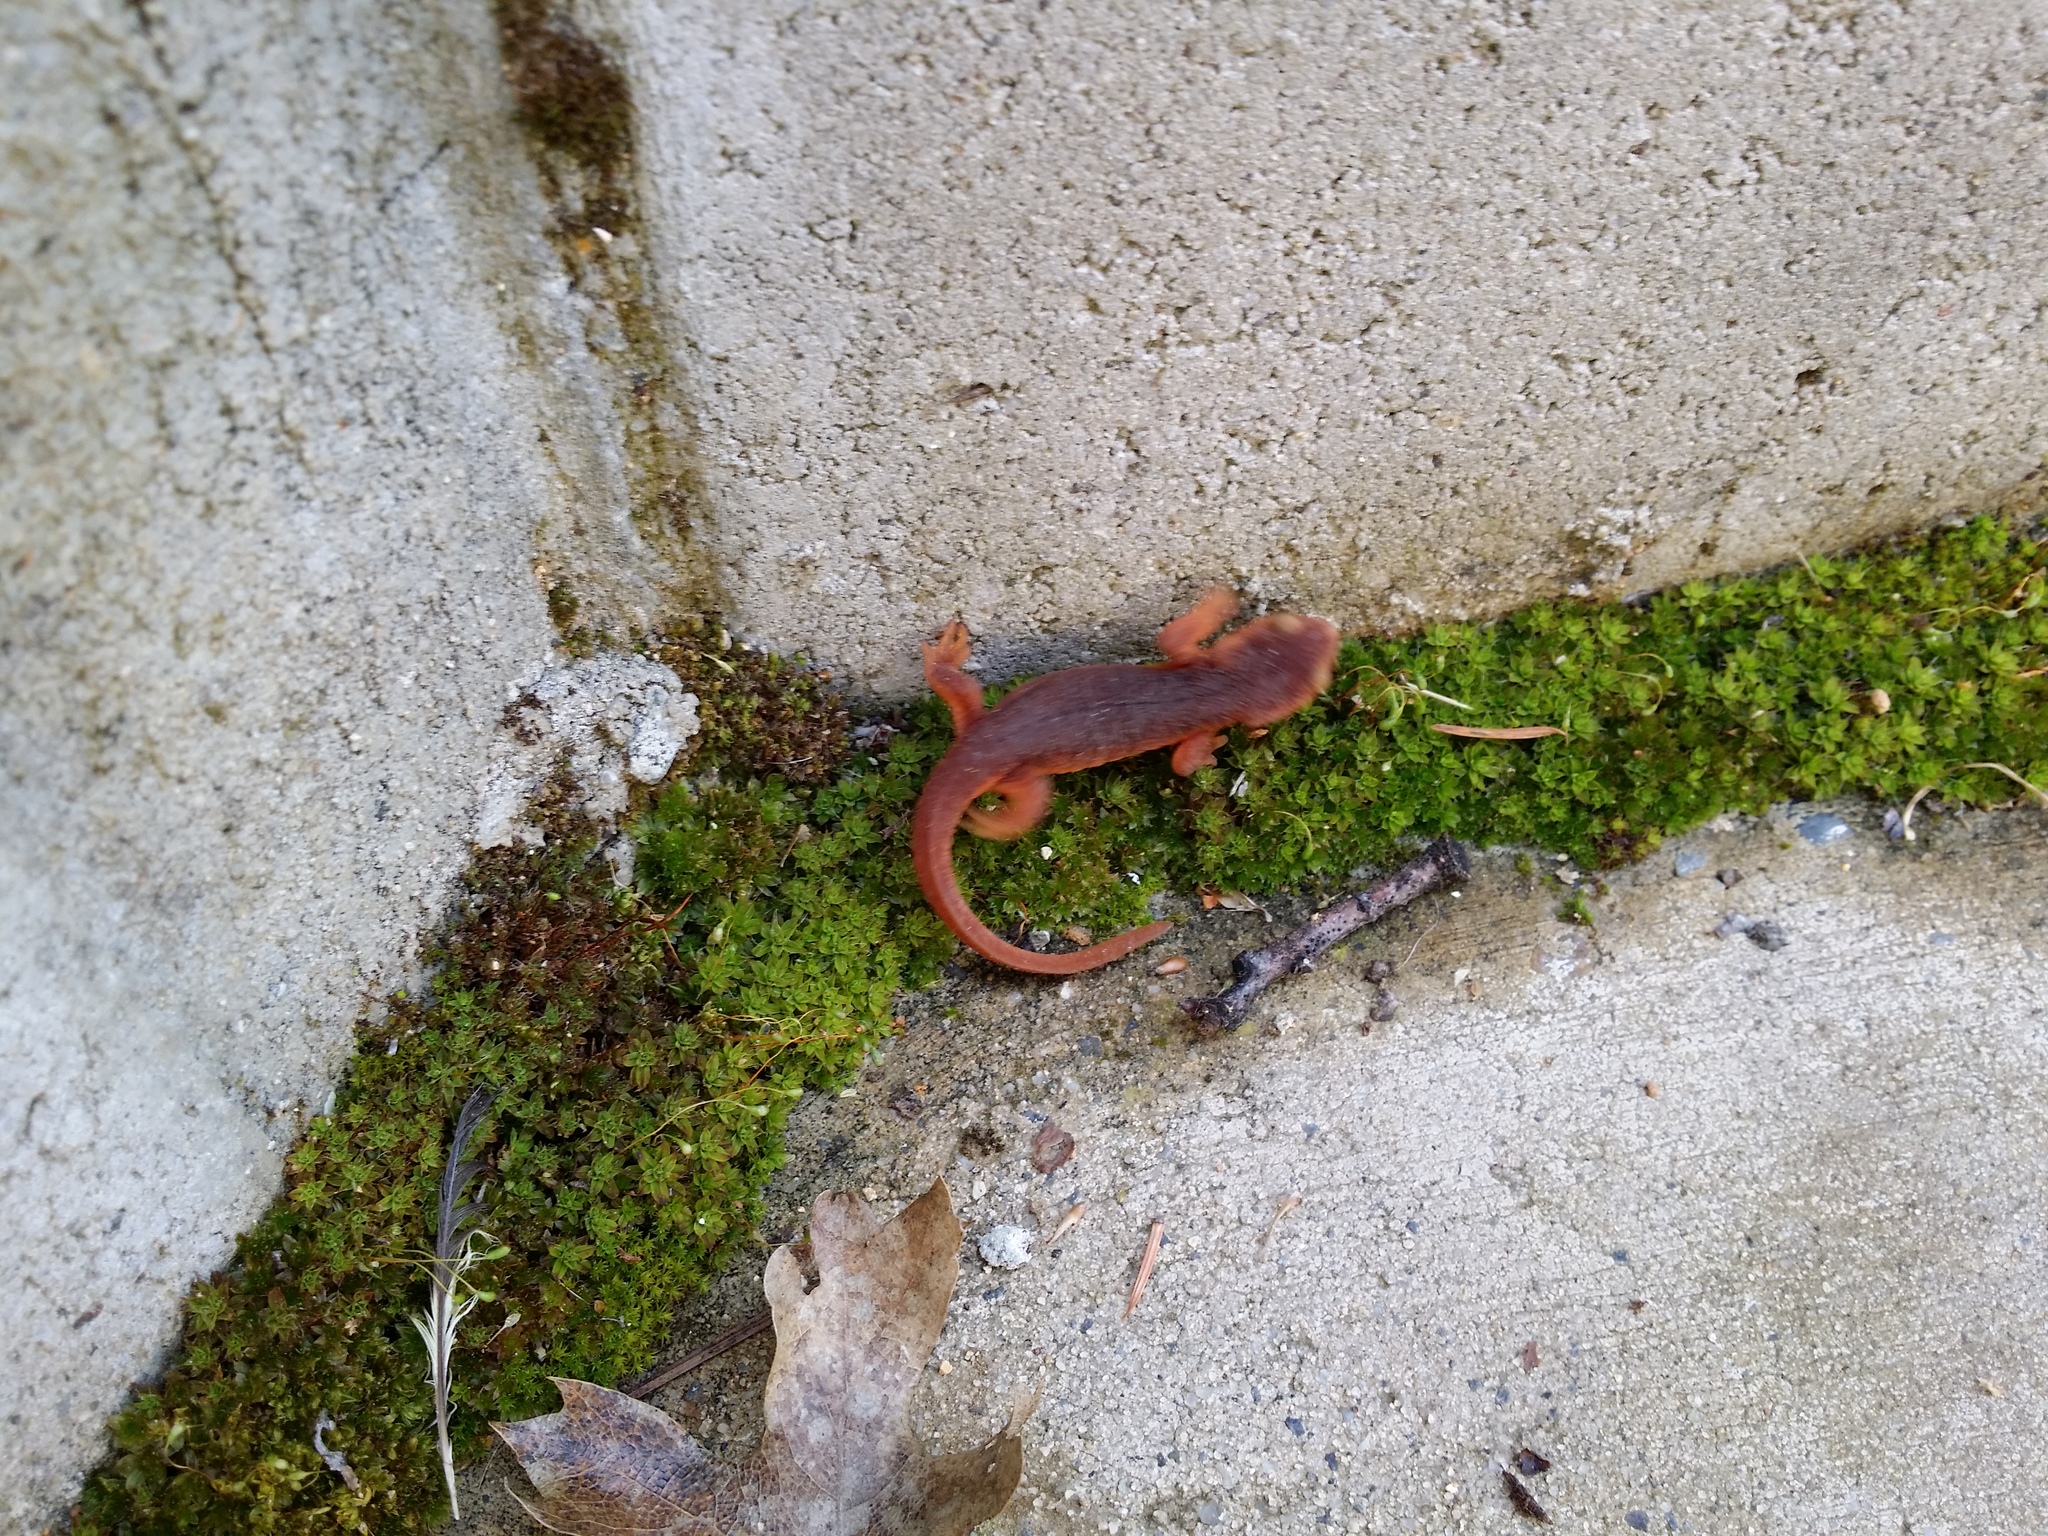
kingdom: Animalia
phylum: Chordata
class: Amphibia
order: Caudata
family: Salamandridae
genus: Taricha
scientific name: Taricha sierrae
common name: Sierra newt
